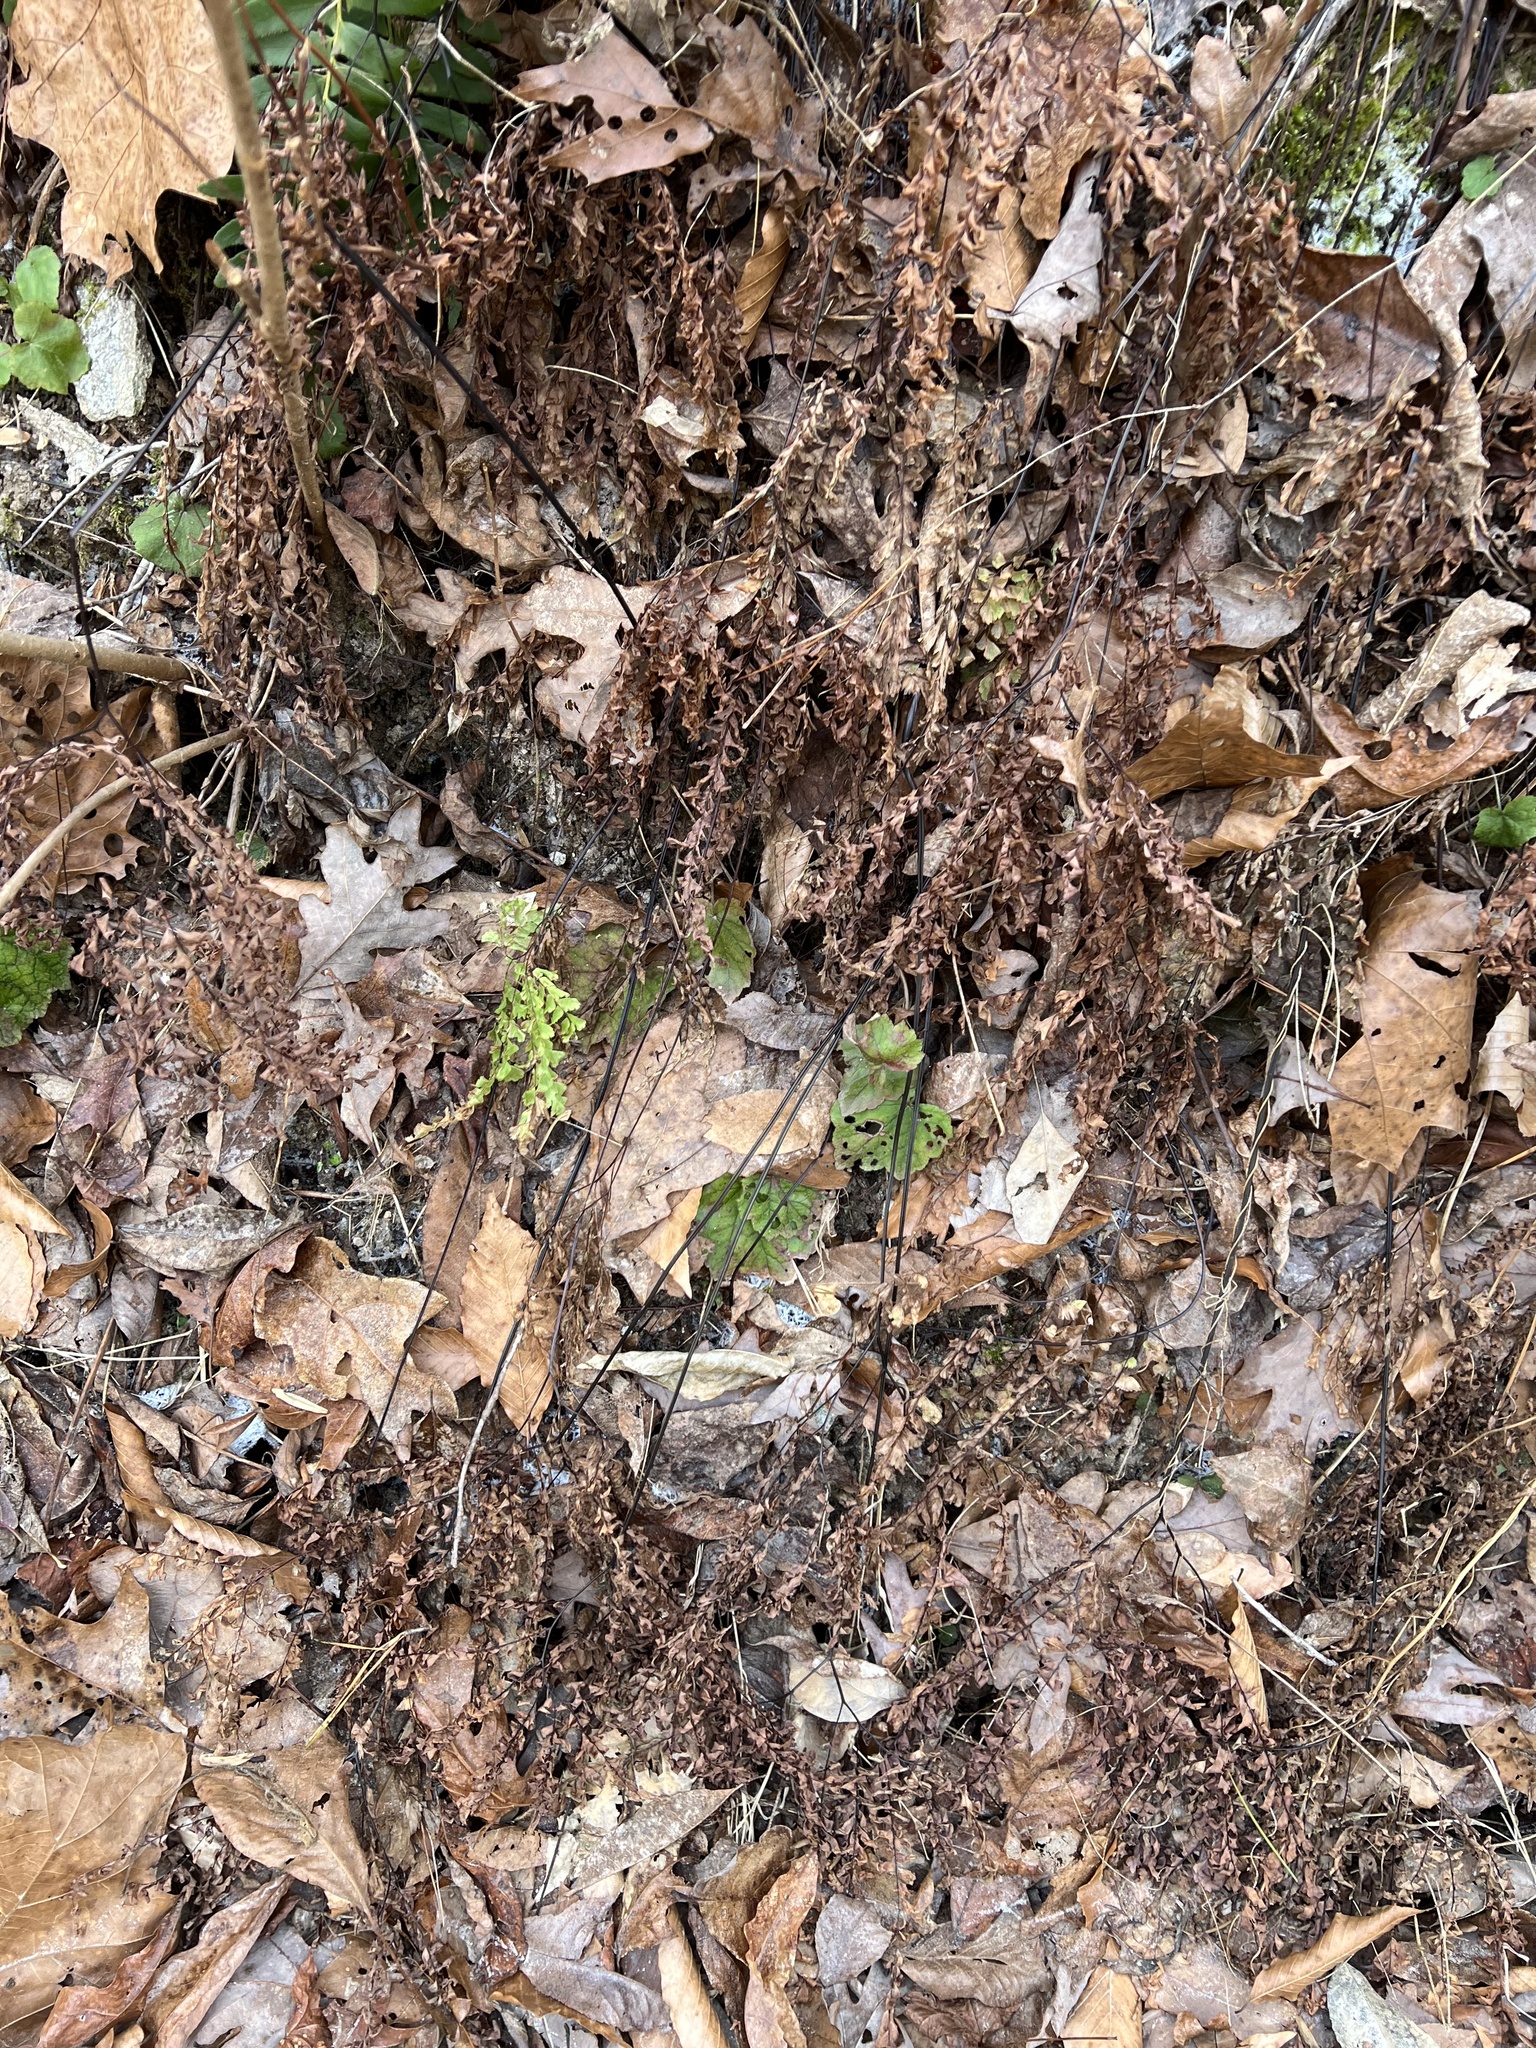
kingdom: Plantae
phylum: Tracheophyta
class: Polypodiopsida
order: Polypodiales
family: Pteridaceae
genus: Adiantum
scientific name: Adiantum pedatum
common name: Five-finger fern
